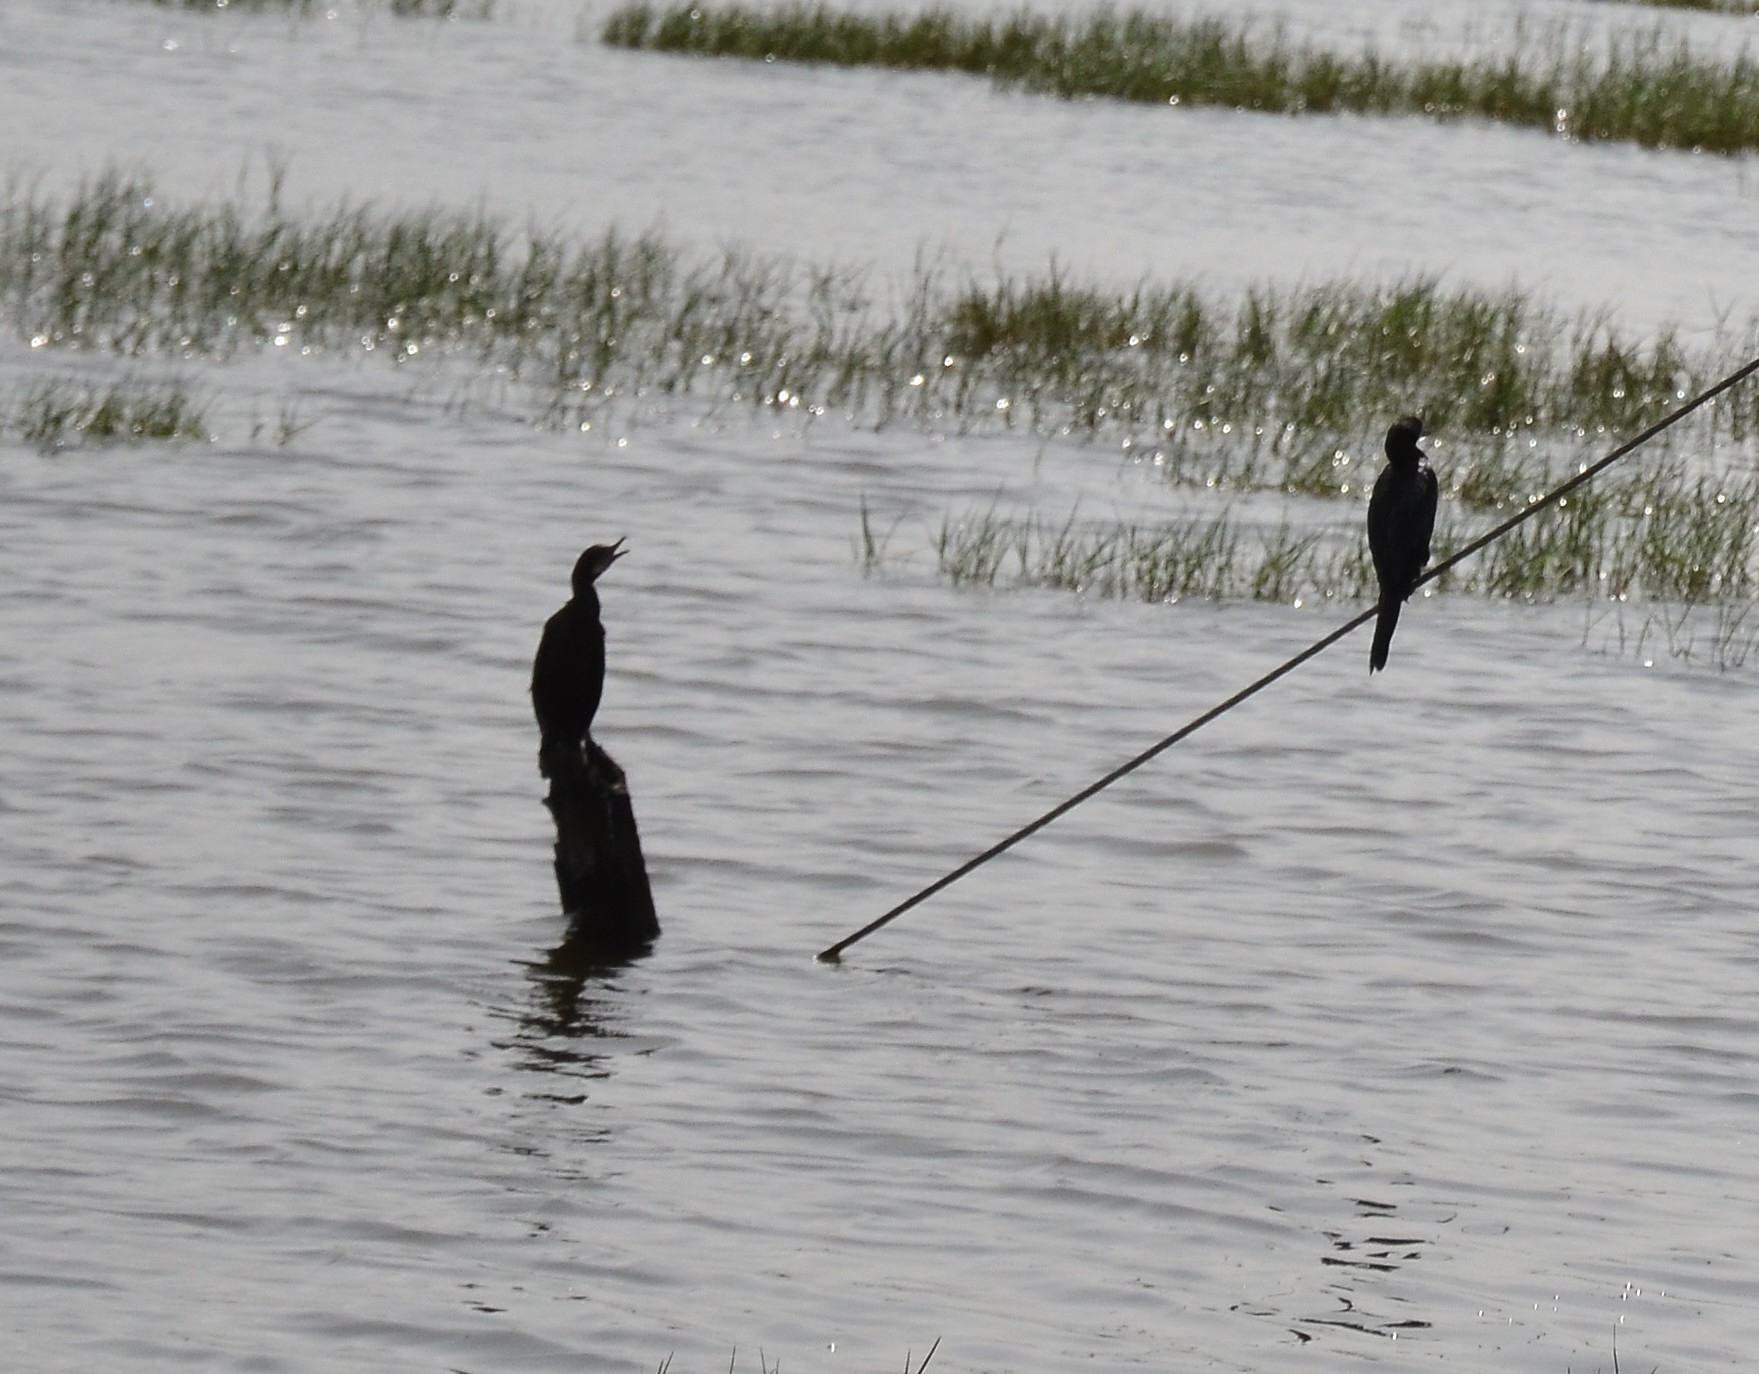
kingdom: Animalia
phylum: Chordata
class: Aves
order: Suliformes
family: Phalacrocoracidae
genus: Microcarbo
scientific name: Microcarbo niger
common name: Little cormorant
